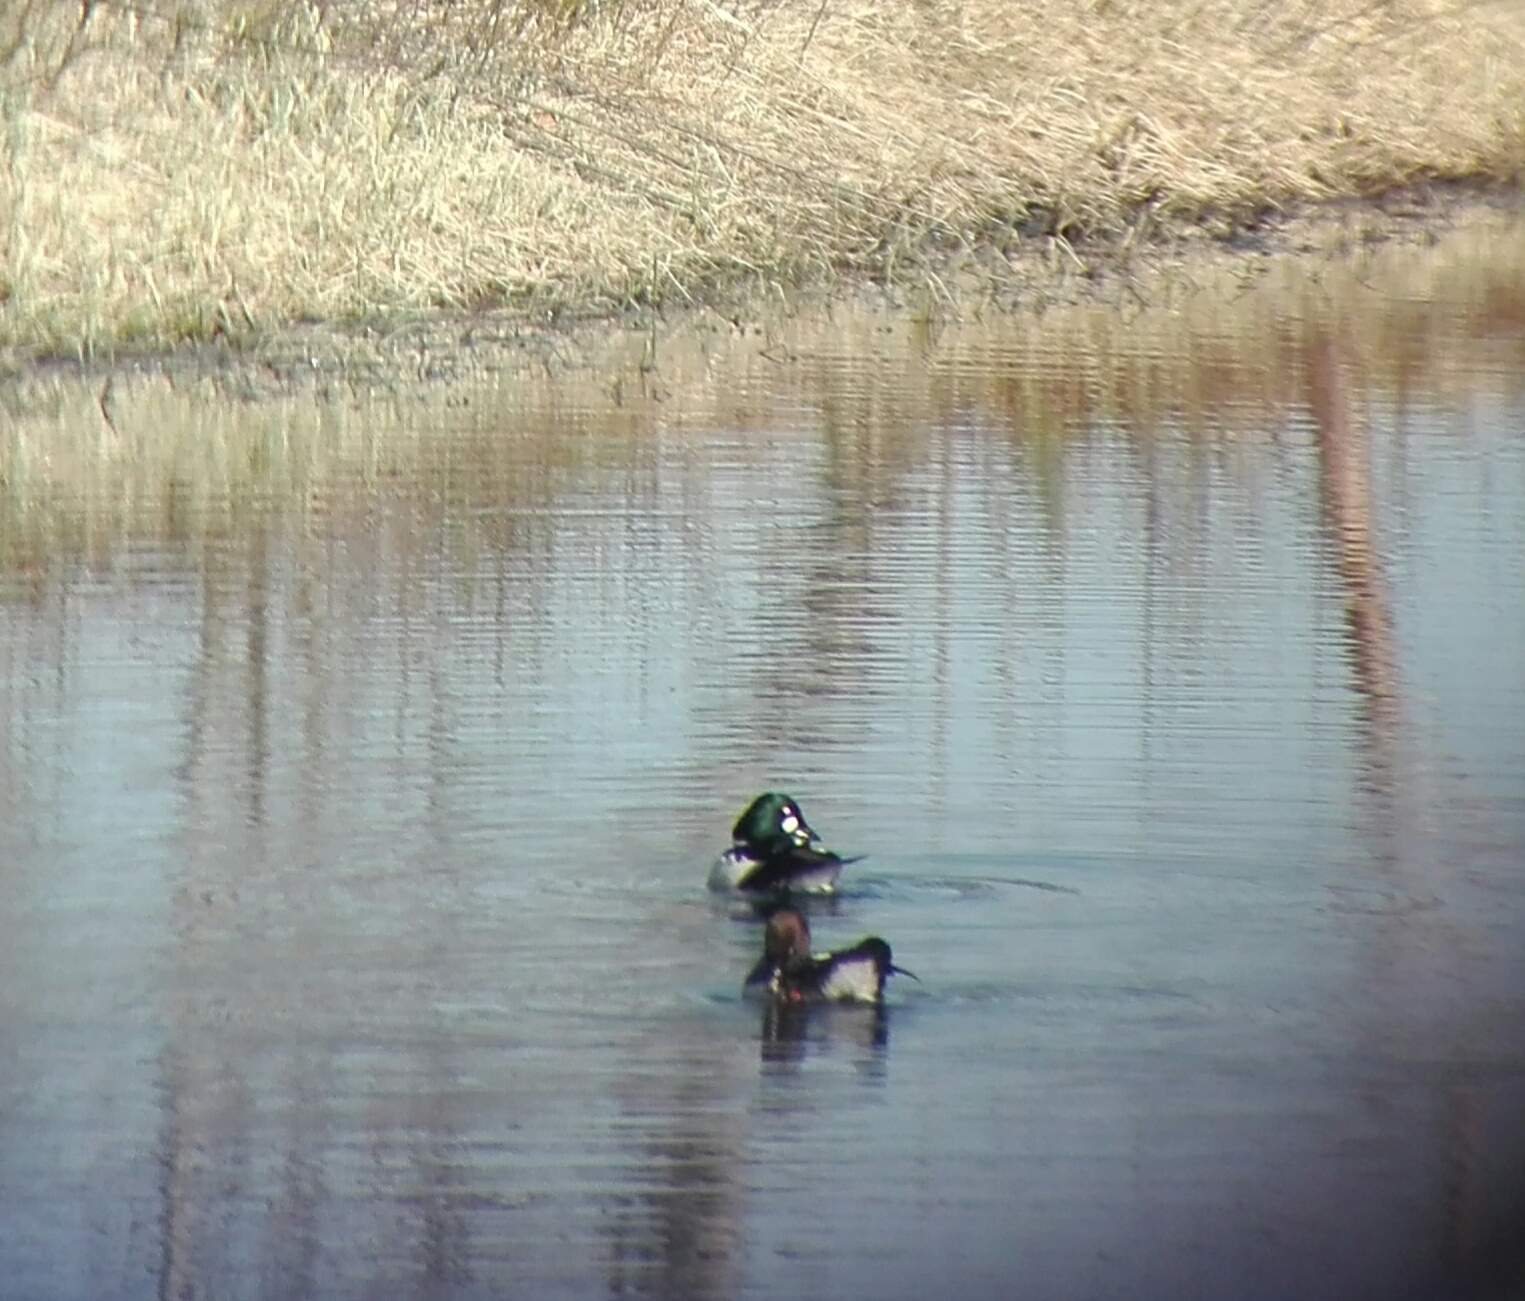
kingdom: Animalia
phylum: Chordata
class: Aves
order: Anseriformes
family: Anatidae
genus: Bucephala
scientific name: Bucephala clangula
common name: Common goldeneye
